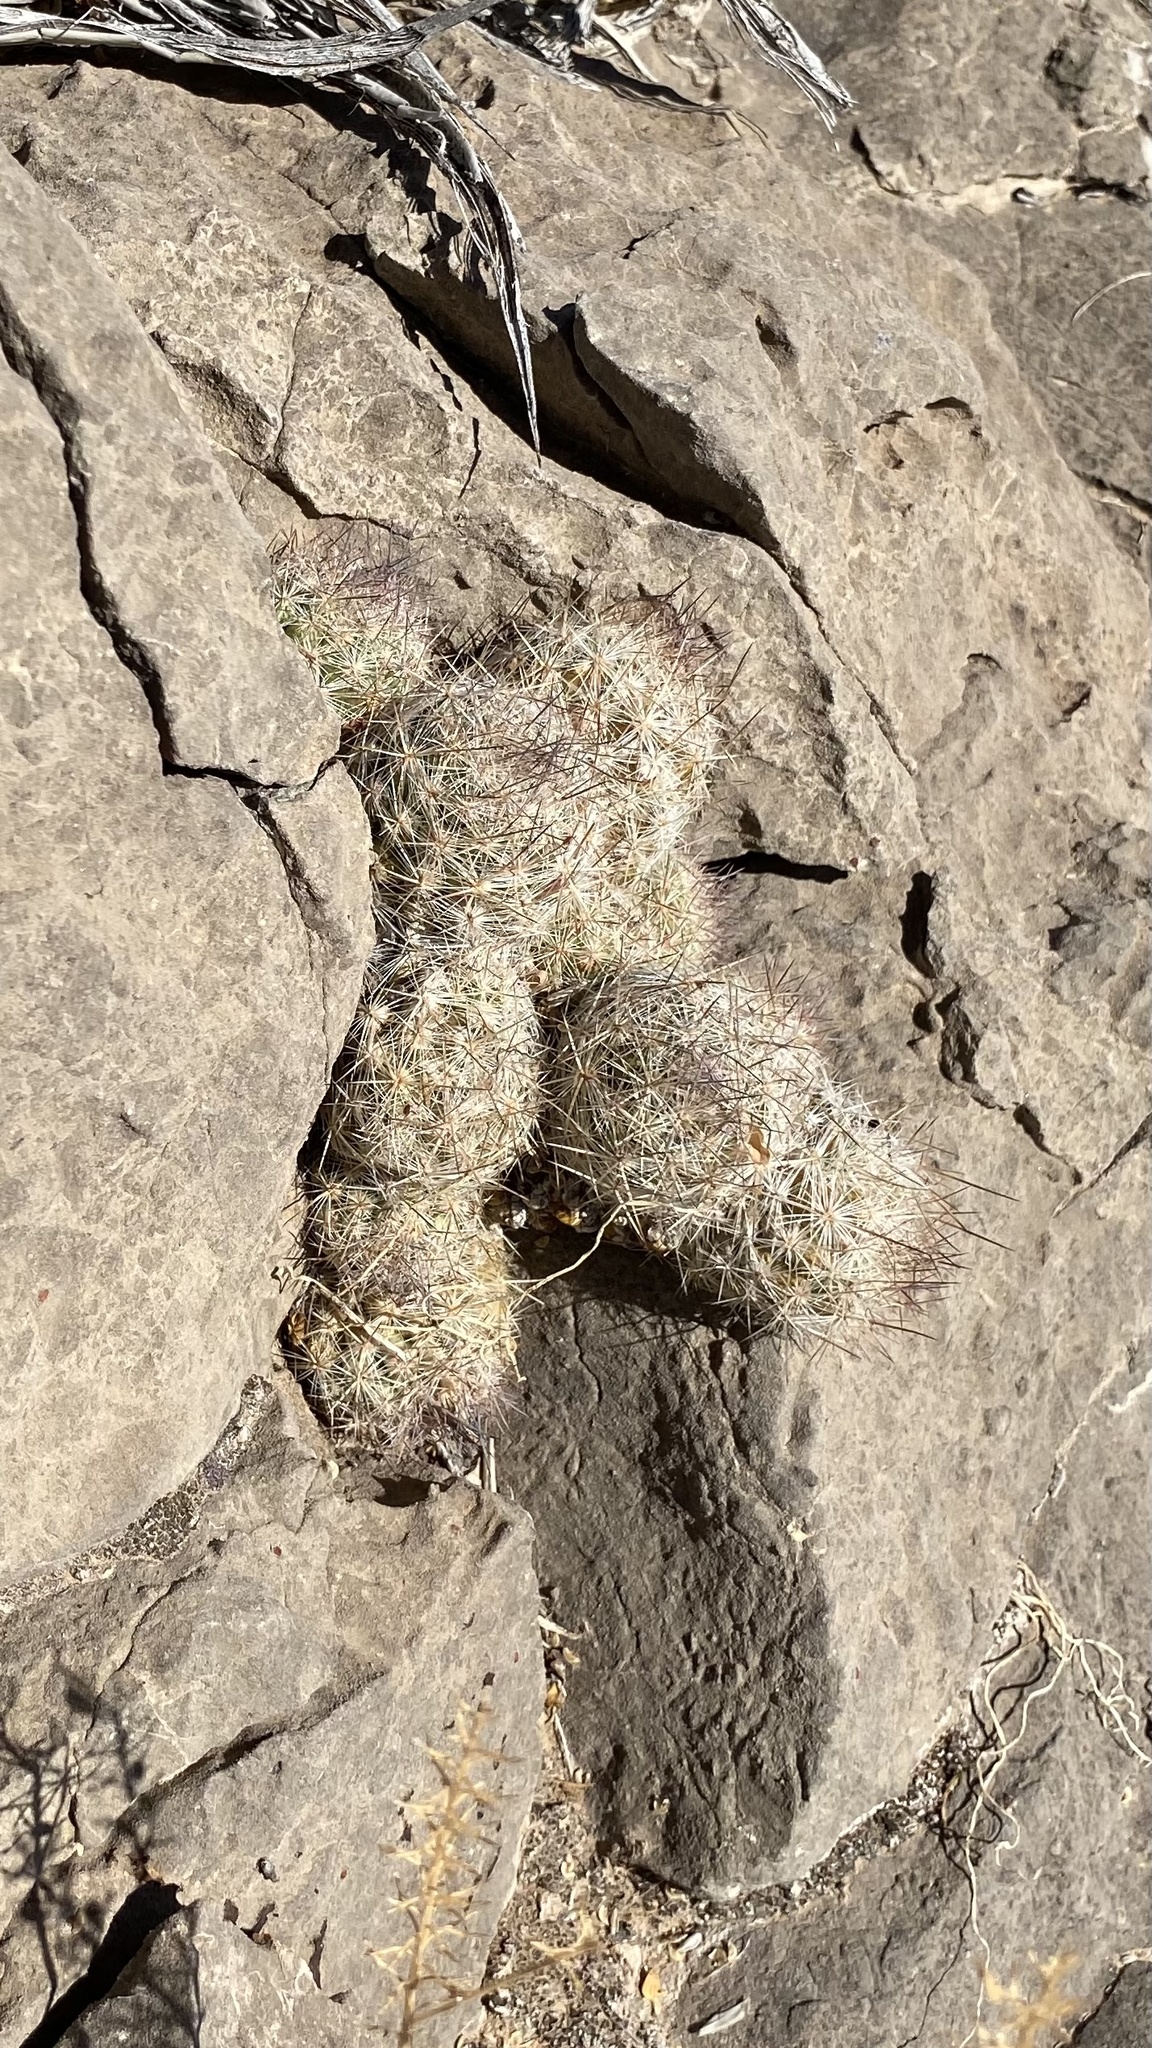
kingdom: Plantae
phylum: Tracheophyta
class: Magnoliopsida
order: Caryophyllales
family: Cactaceae
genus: Pelecyphora
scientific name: Pelecyphora tuberculosa
